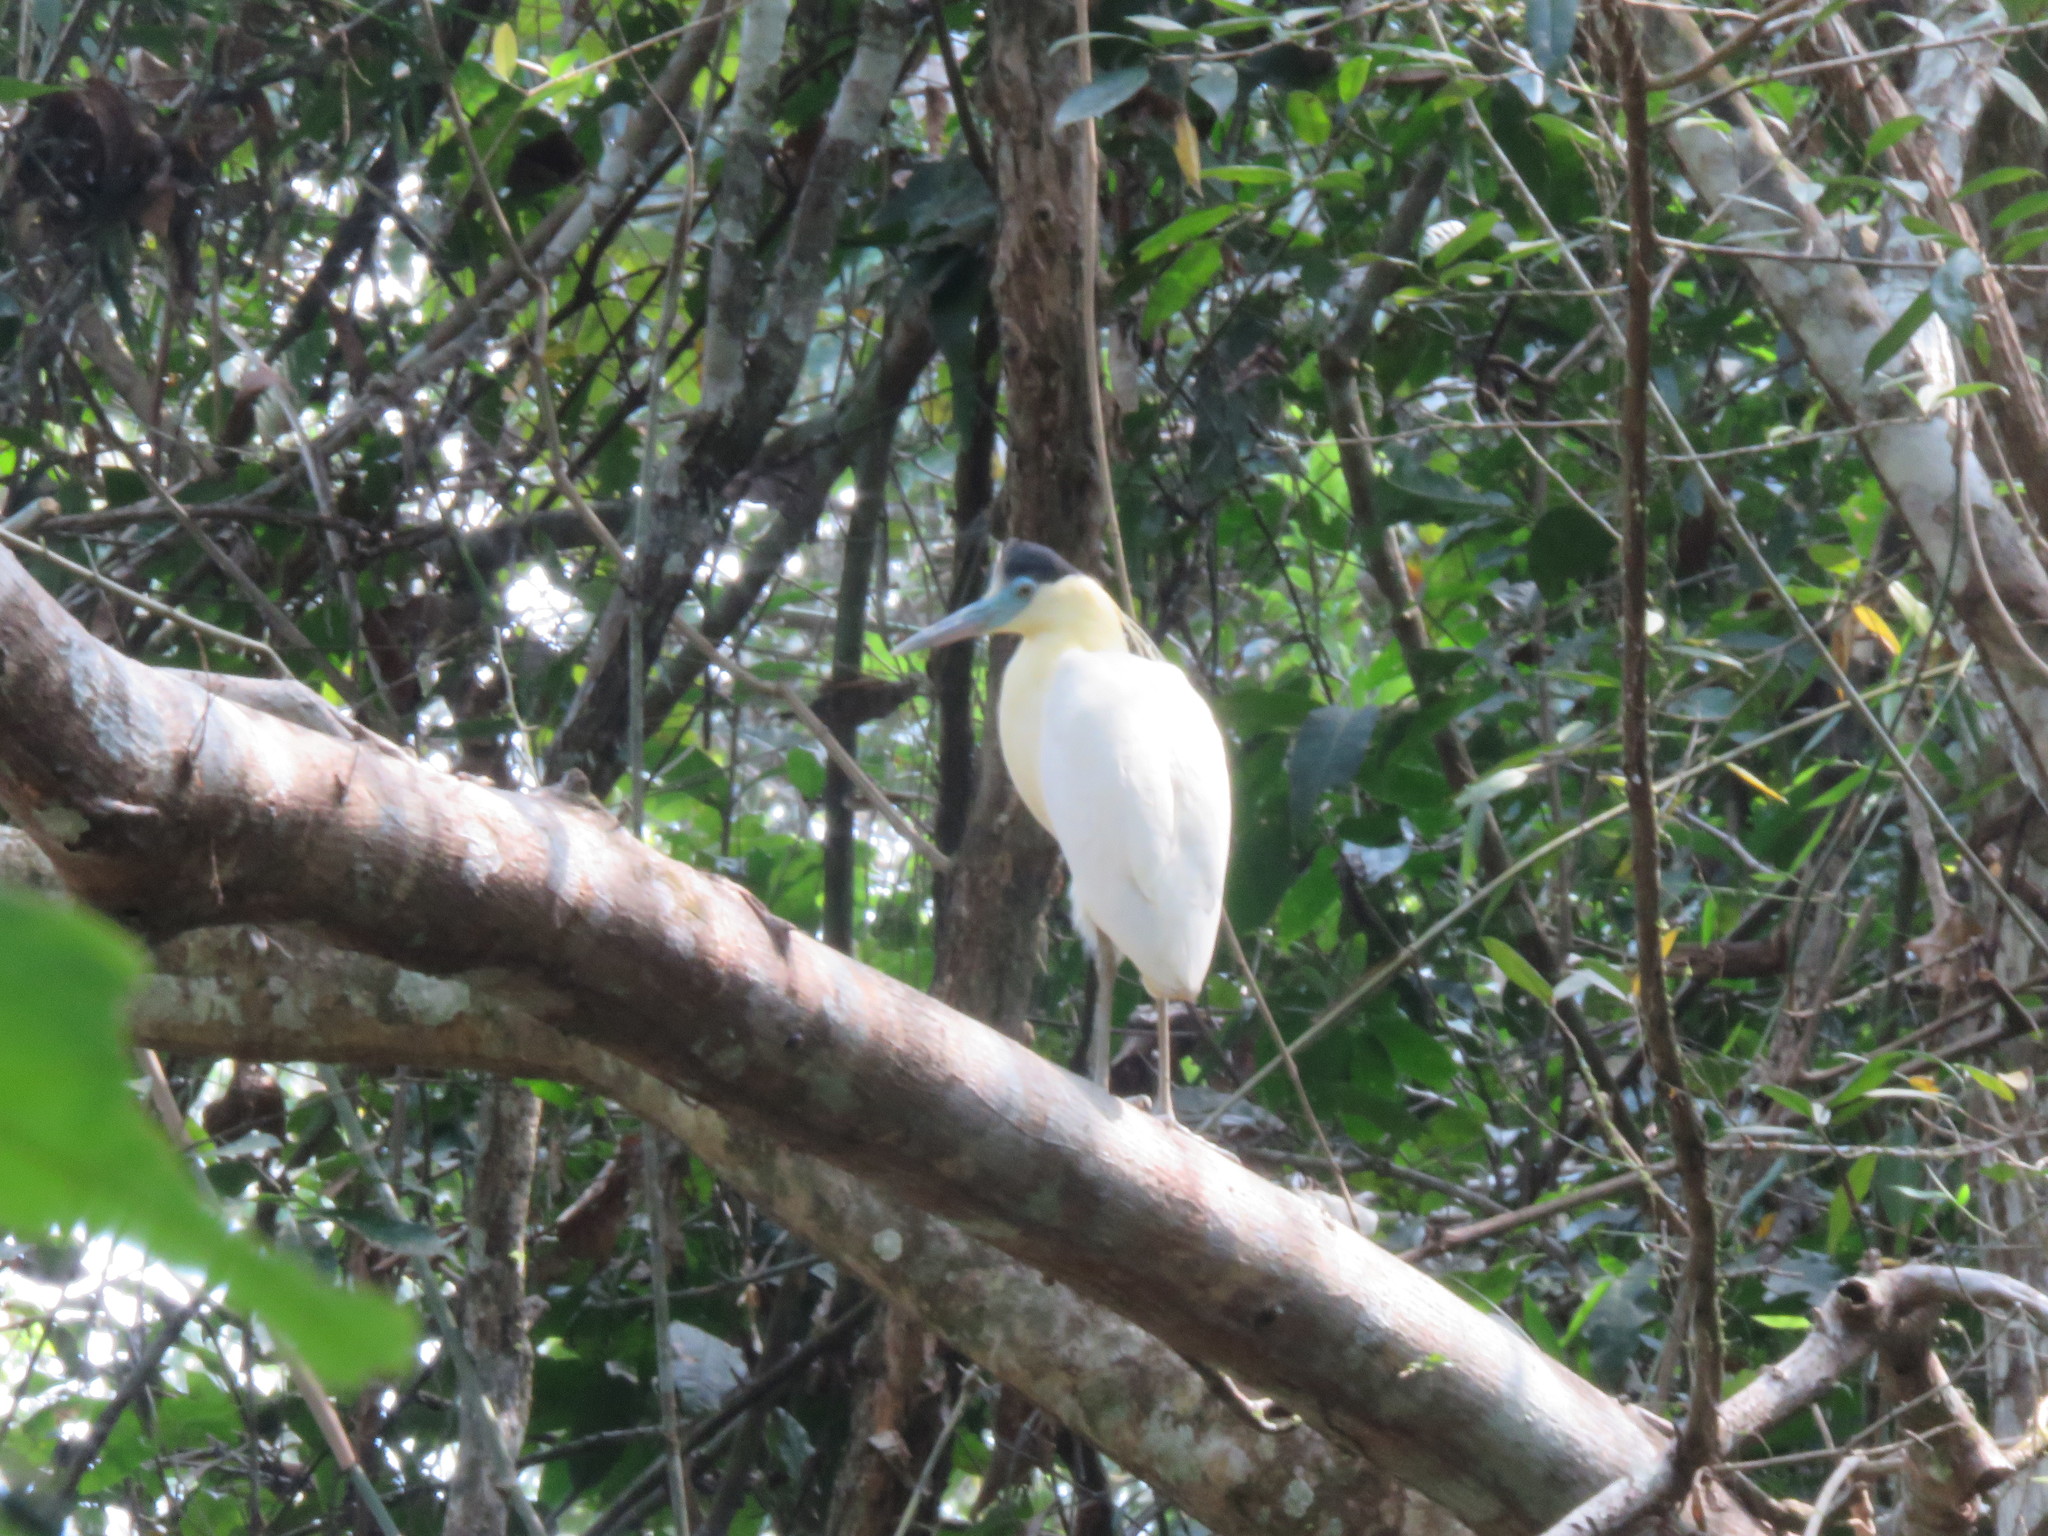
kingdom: Animalia
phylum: Chordata
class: Aves
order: Pelecaniformes
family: Ardeidae
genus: Pilherodius
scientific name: Pilherodius pileatus
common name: Capped heron
